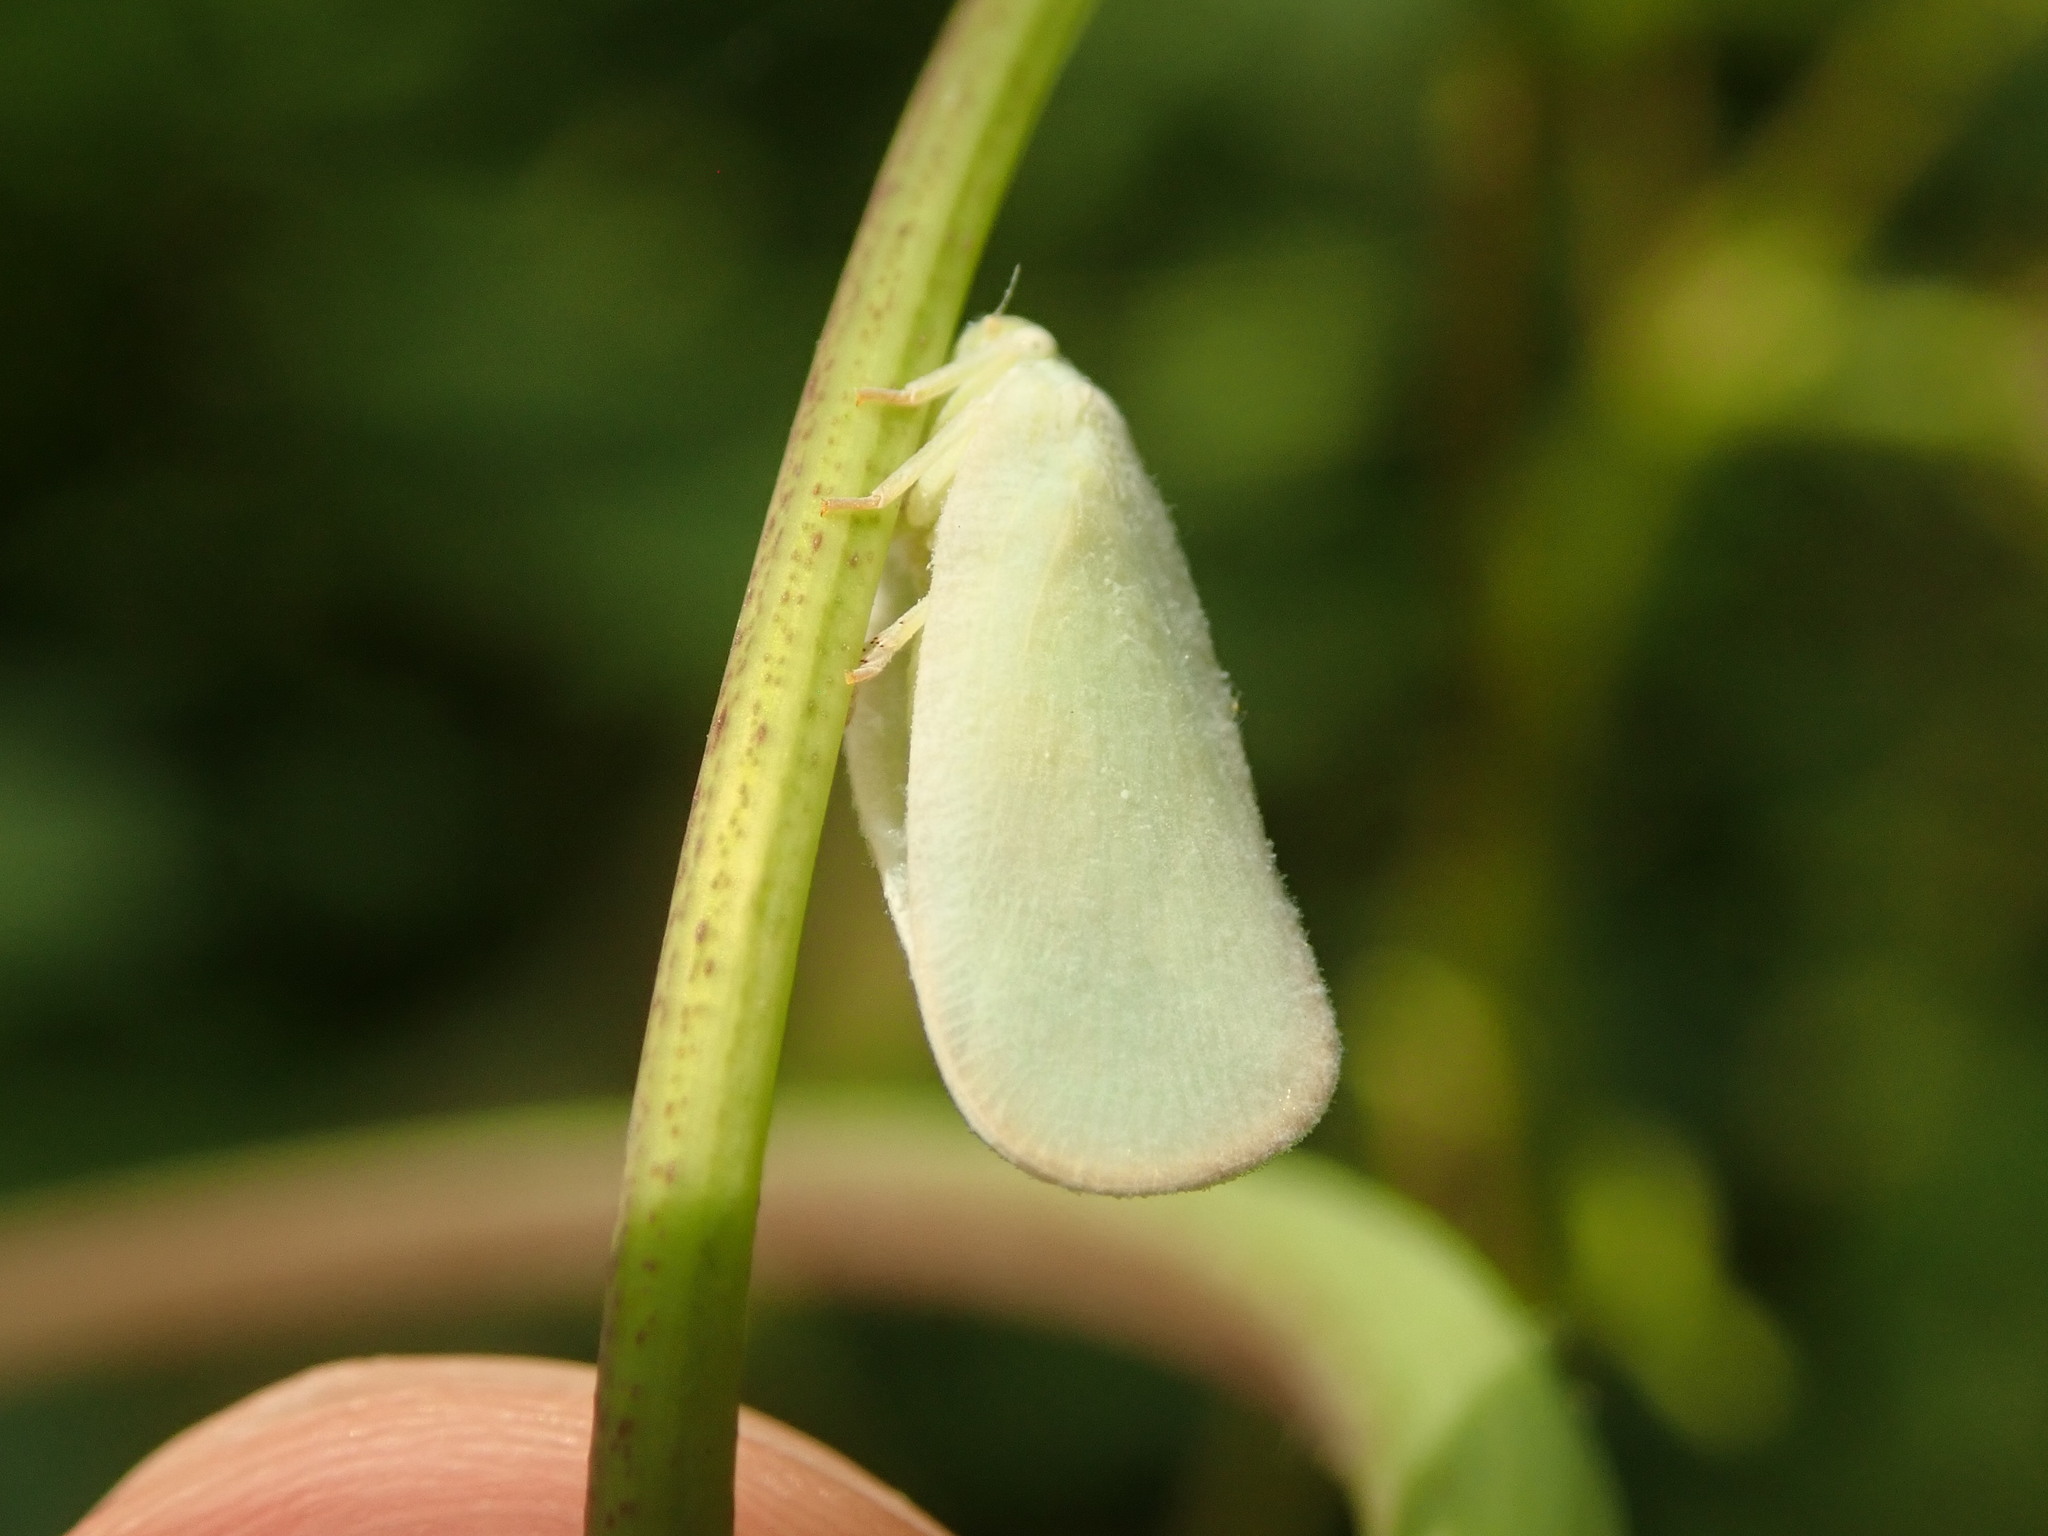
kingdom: Animalia
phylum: Arthropoda
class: Insecta
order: Hemiptera
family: Flatidae
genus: Ormenoides
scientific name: Ormenoides venusta
